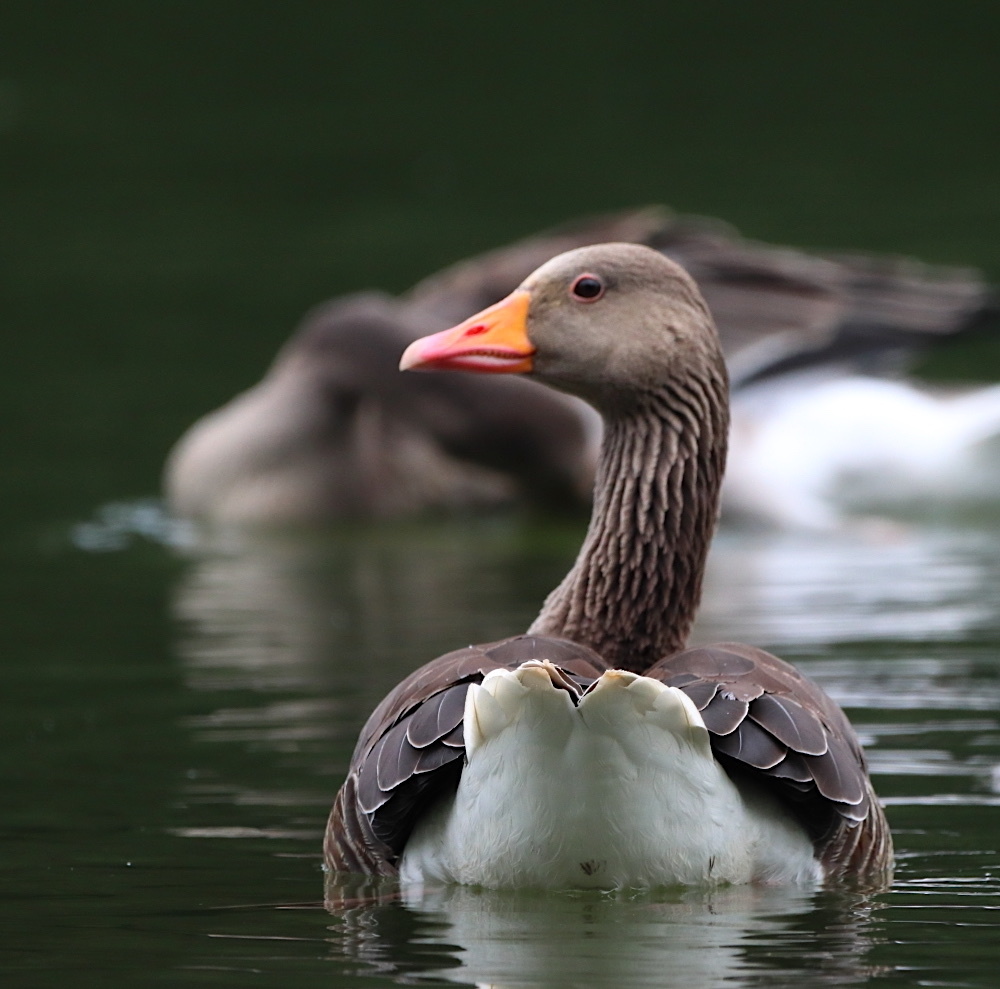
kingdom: Animalia
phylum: Chordata
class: Aves
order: Anseriformes
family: Anatidae
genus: Anser
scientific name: Anser anser
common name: Greylag goose
